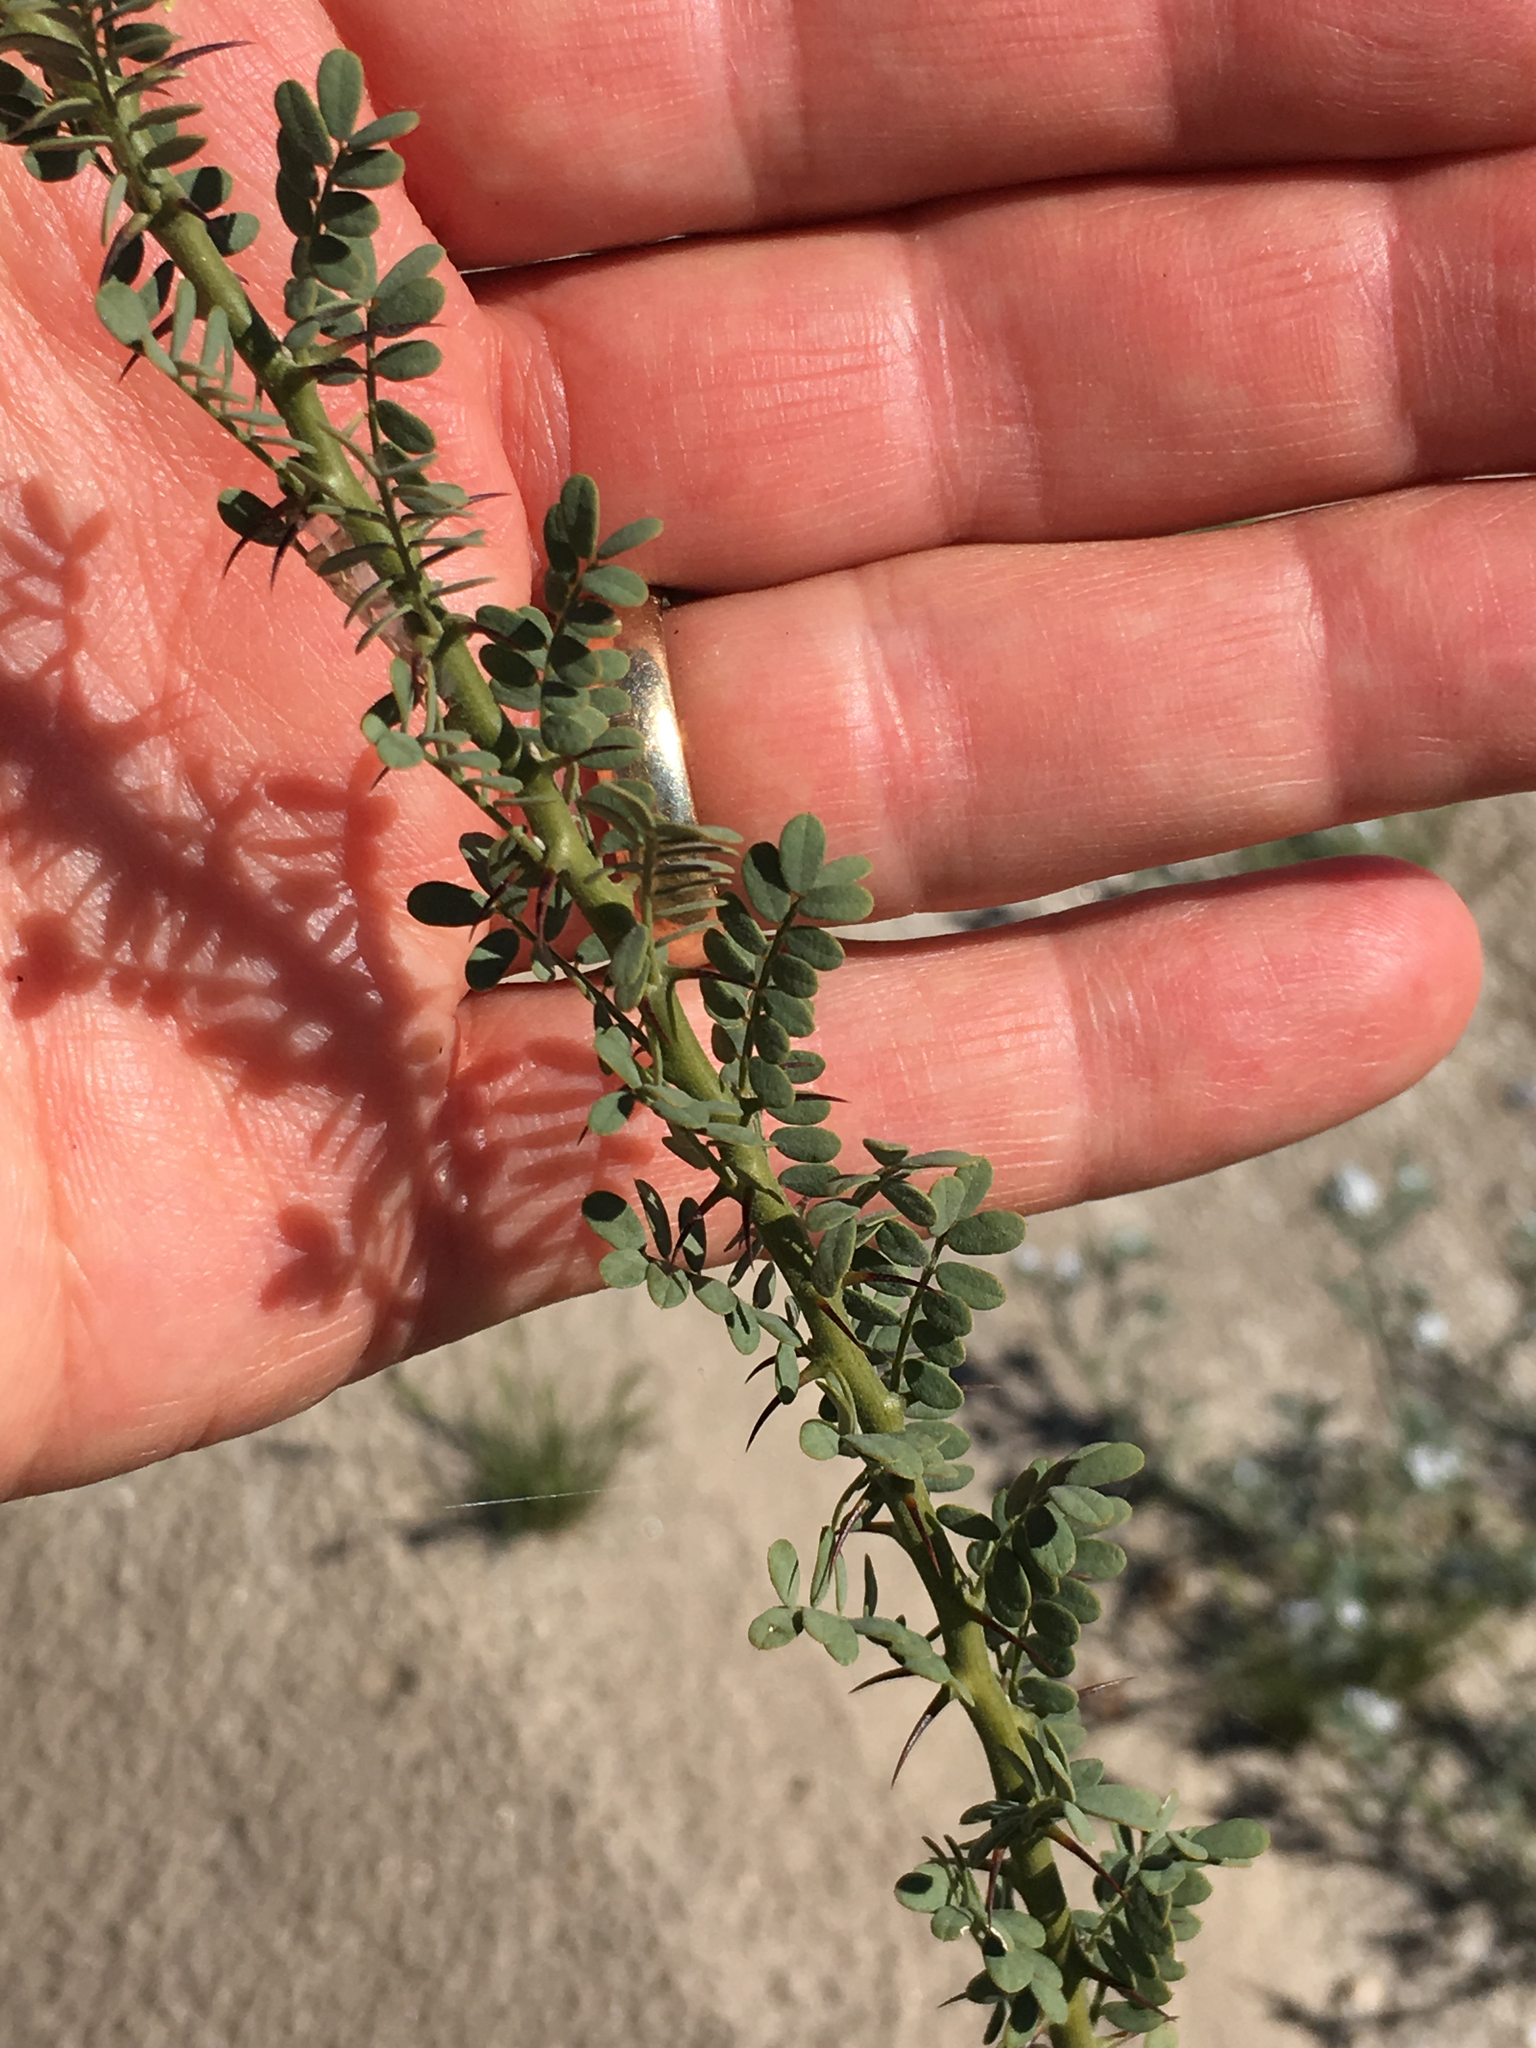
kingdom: Plantae
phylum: Tracheophyta
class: Magnoliopsida
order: Fabales
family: Fabaceae
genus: Olneya
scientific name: Olneya tesota
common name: Desert ironwood
